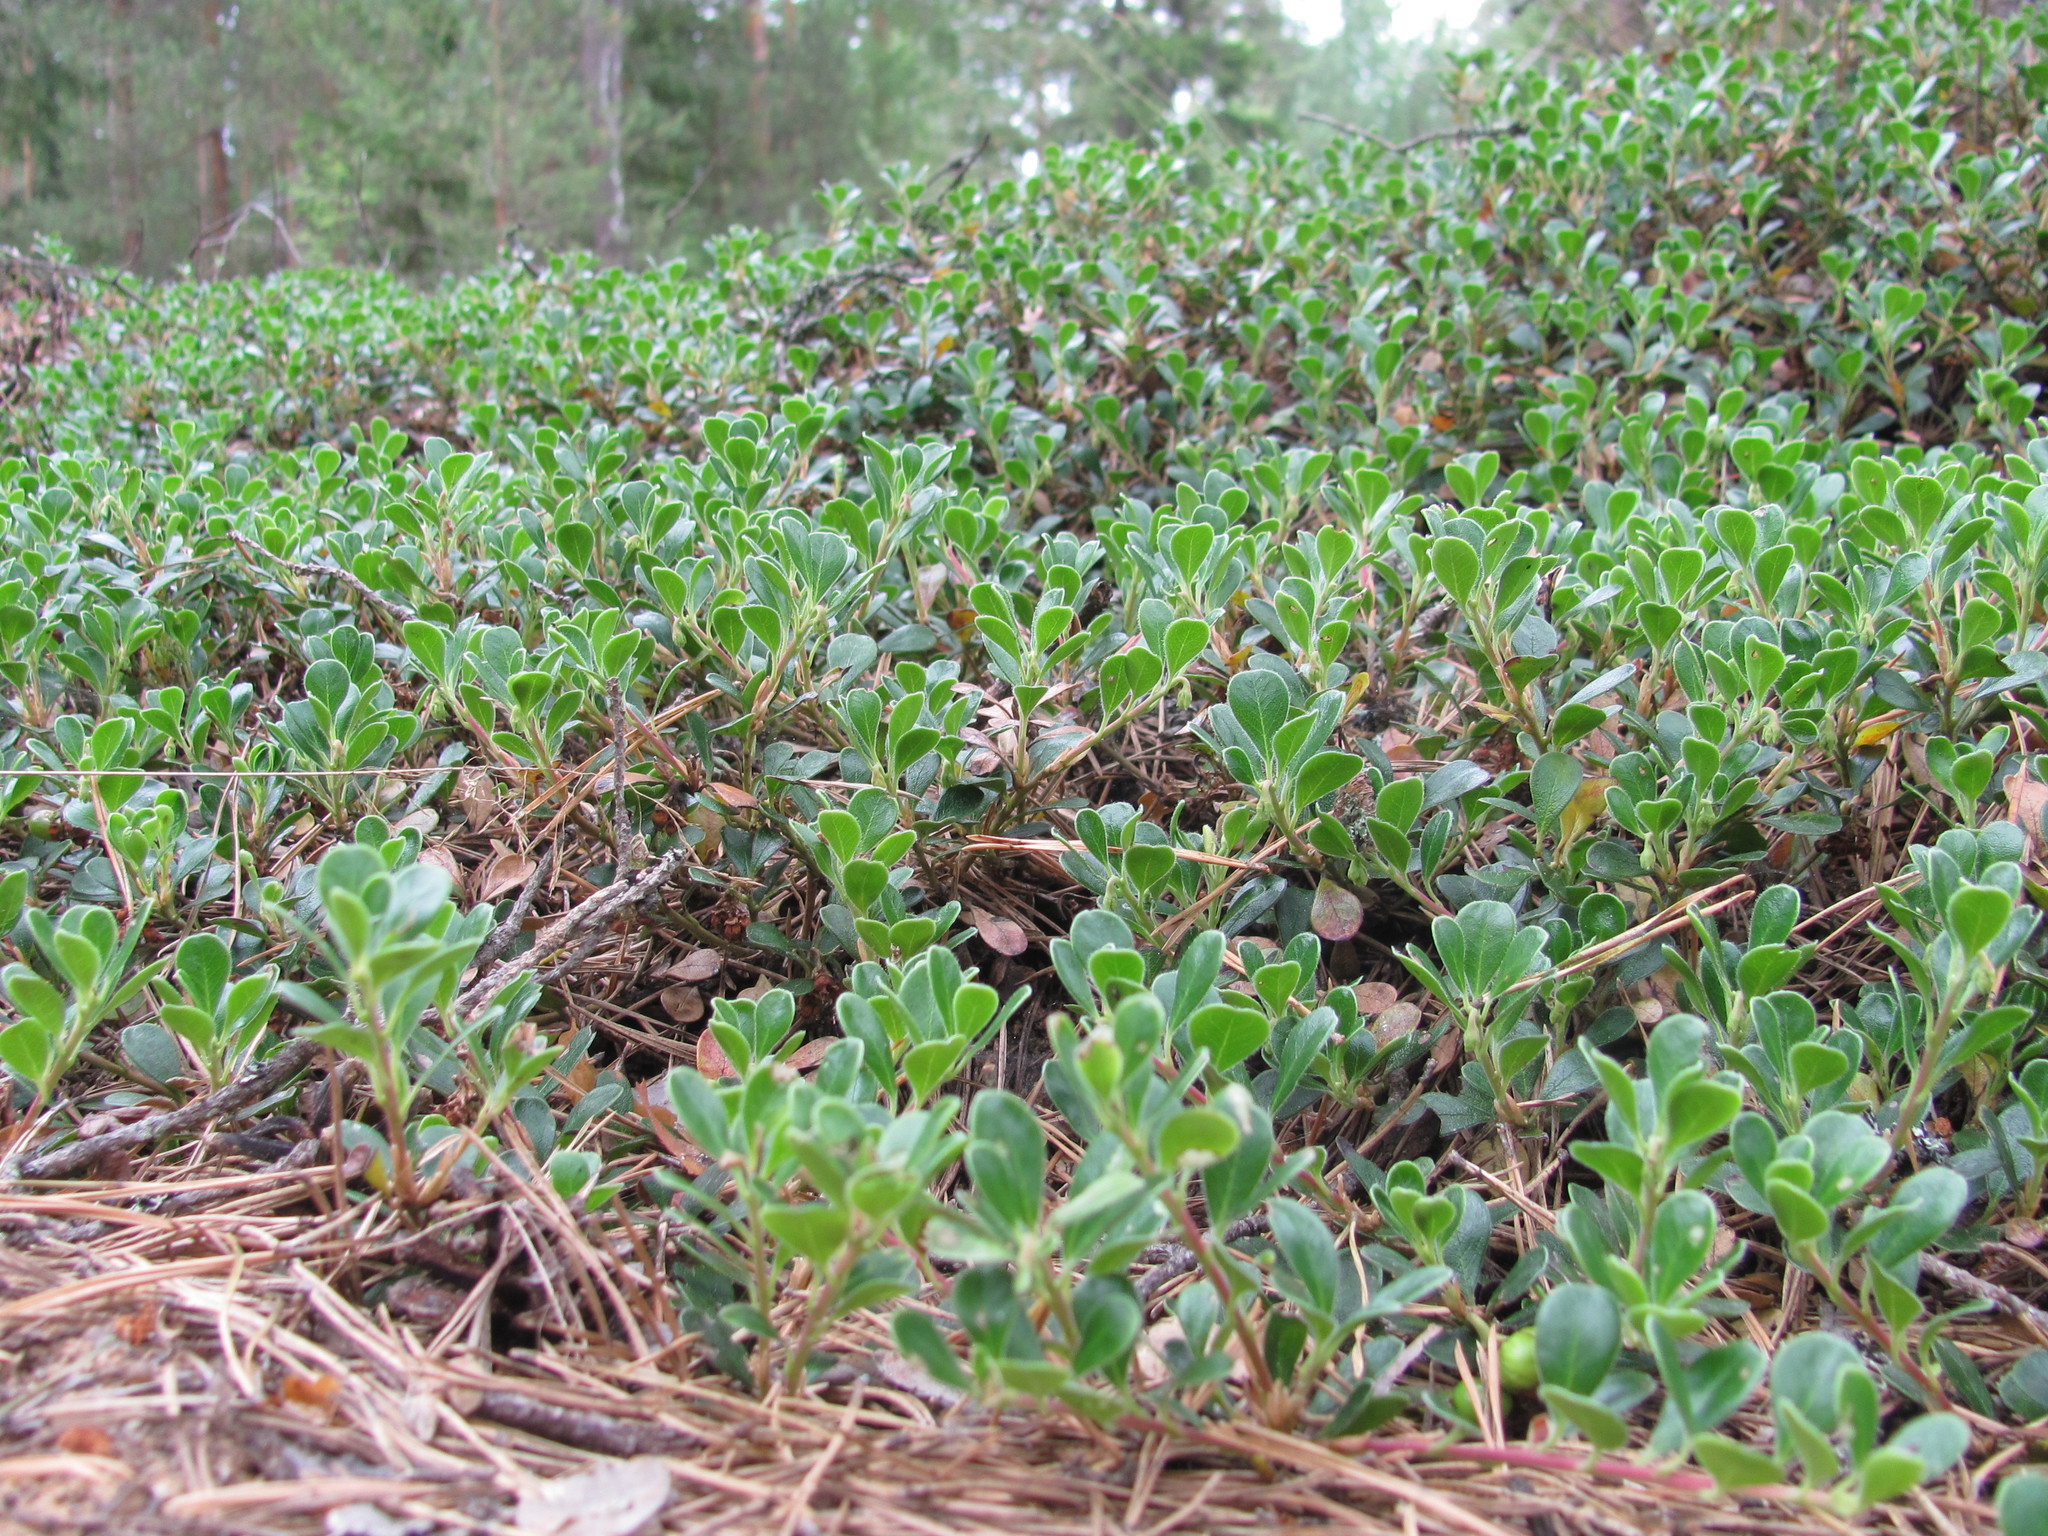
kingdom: Plantae
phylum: Tracheophyta
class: Magnoliopsida
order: Ericales
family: Ericaceae
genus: Arctostaphylos
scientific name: Arctostaphylos uva-ursi
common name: Bearberry
